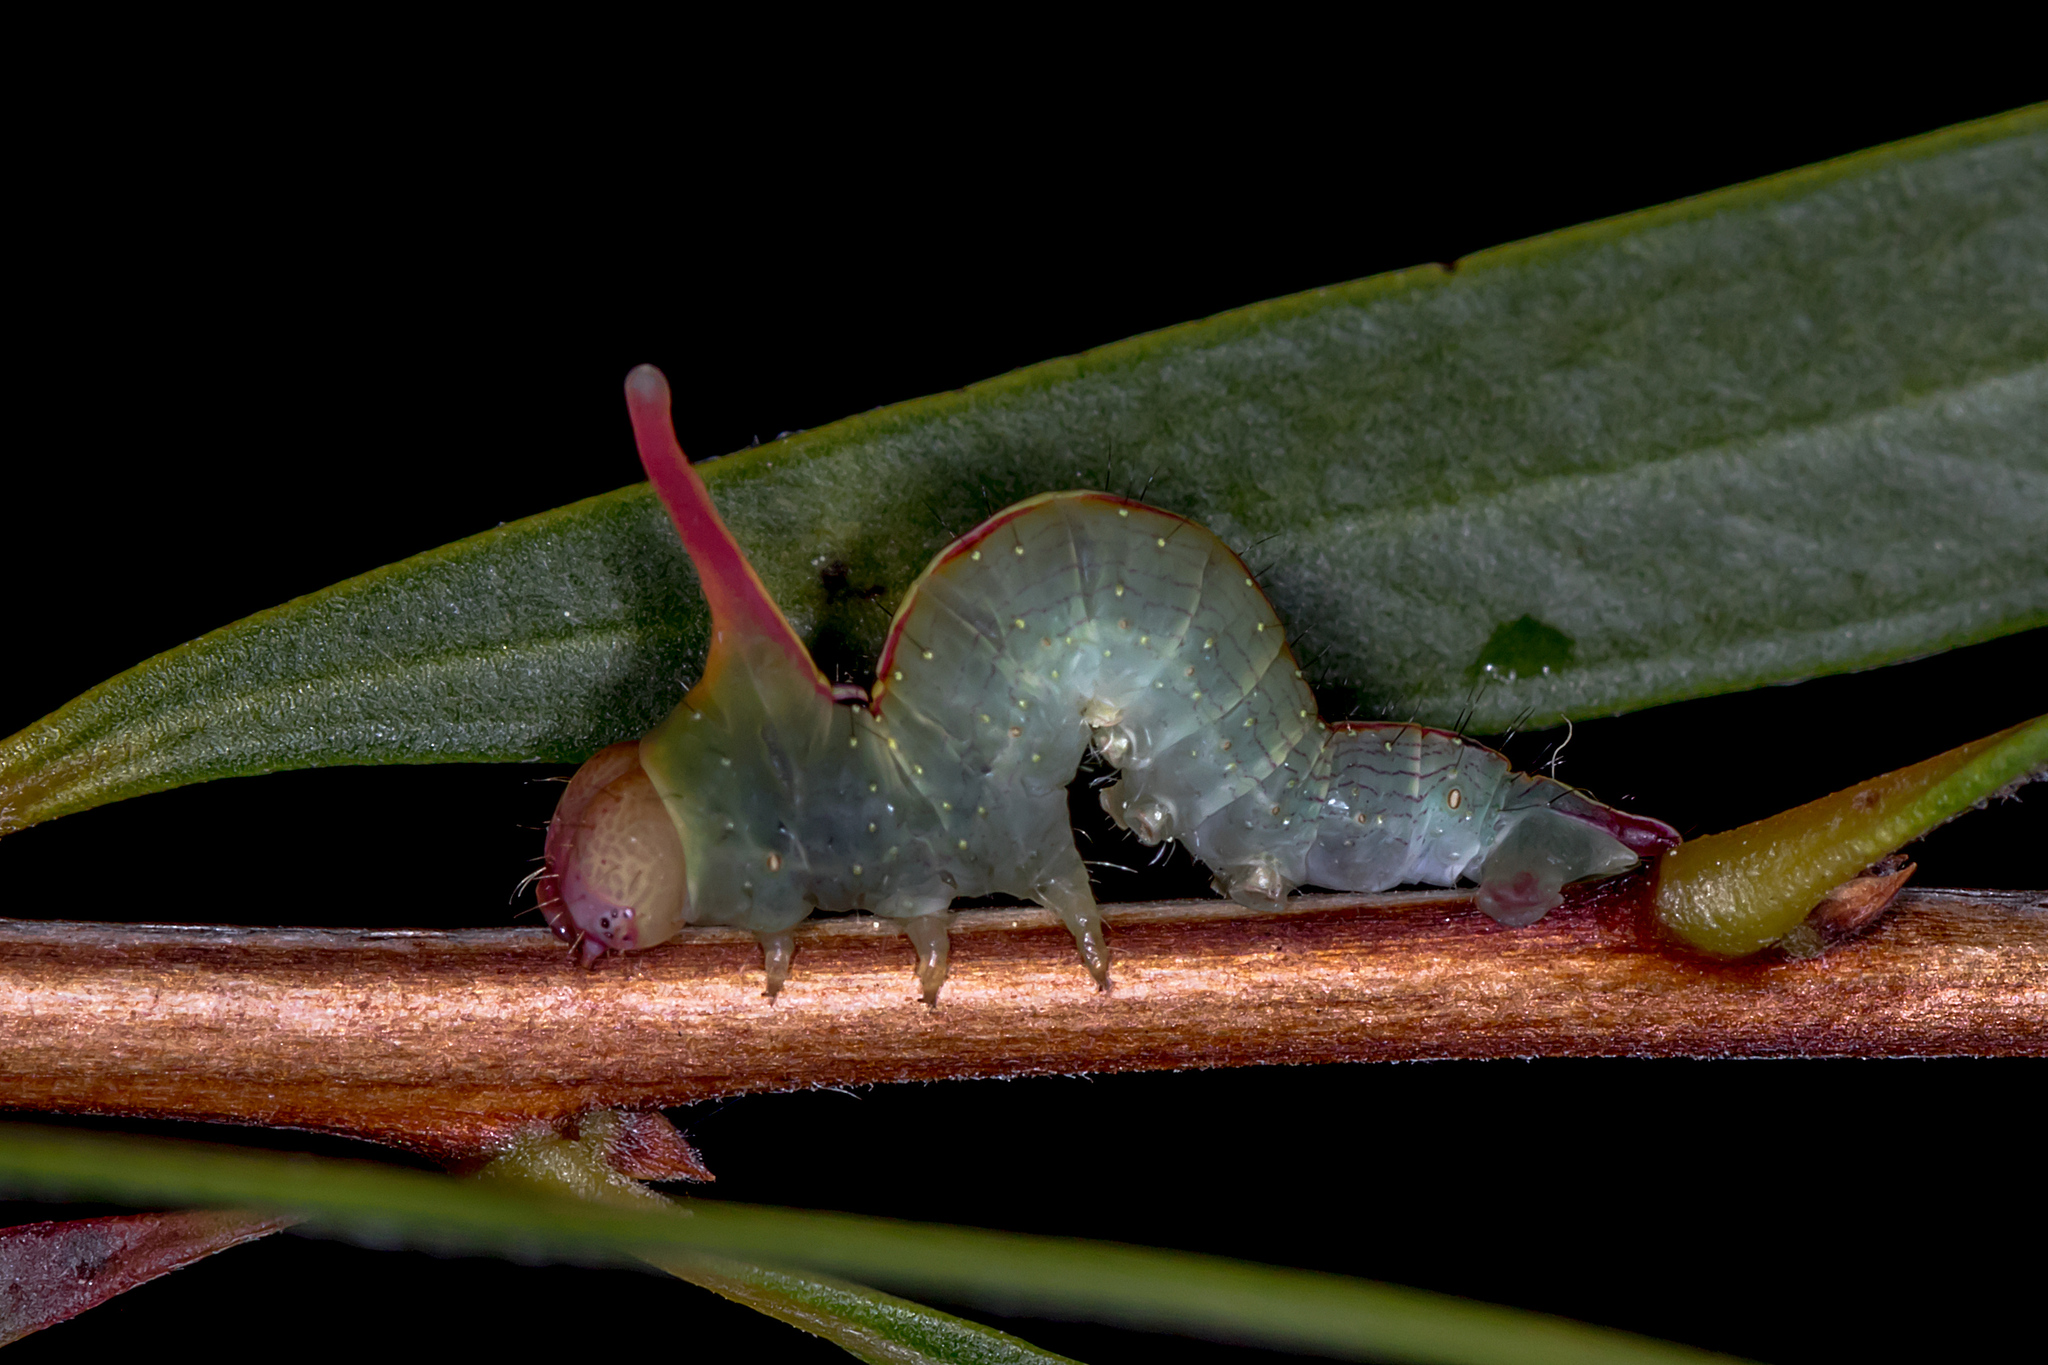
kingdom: Animalia
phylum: Arthropoda
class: Insecta
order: Lepidoptera
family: Geometridae
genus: Plesanemma
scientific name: Plesanemma fucata
